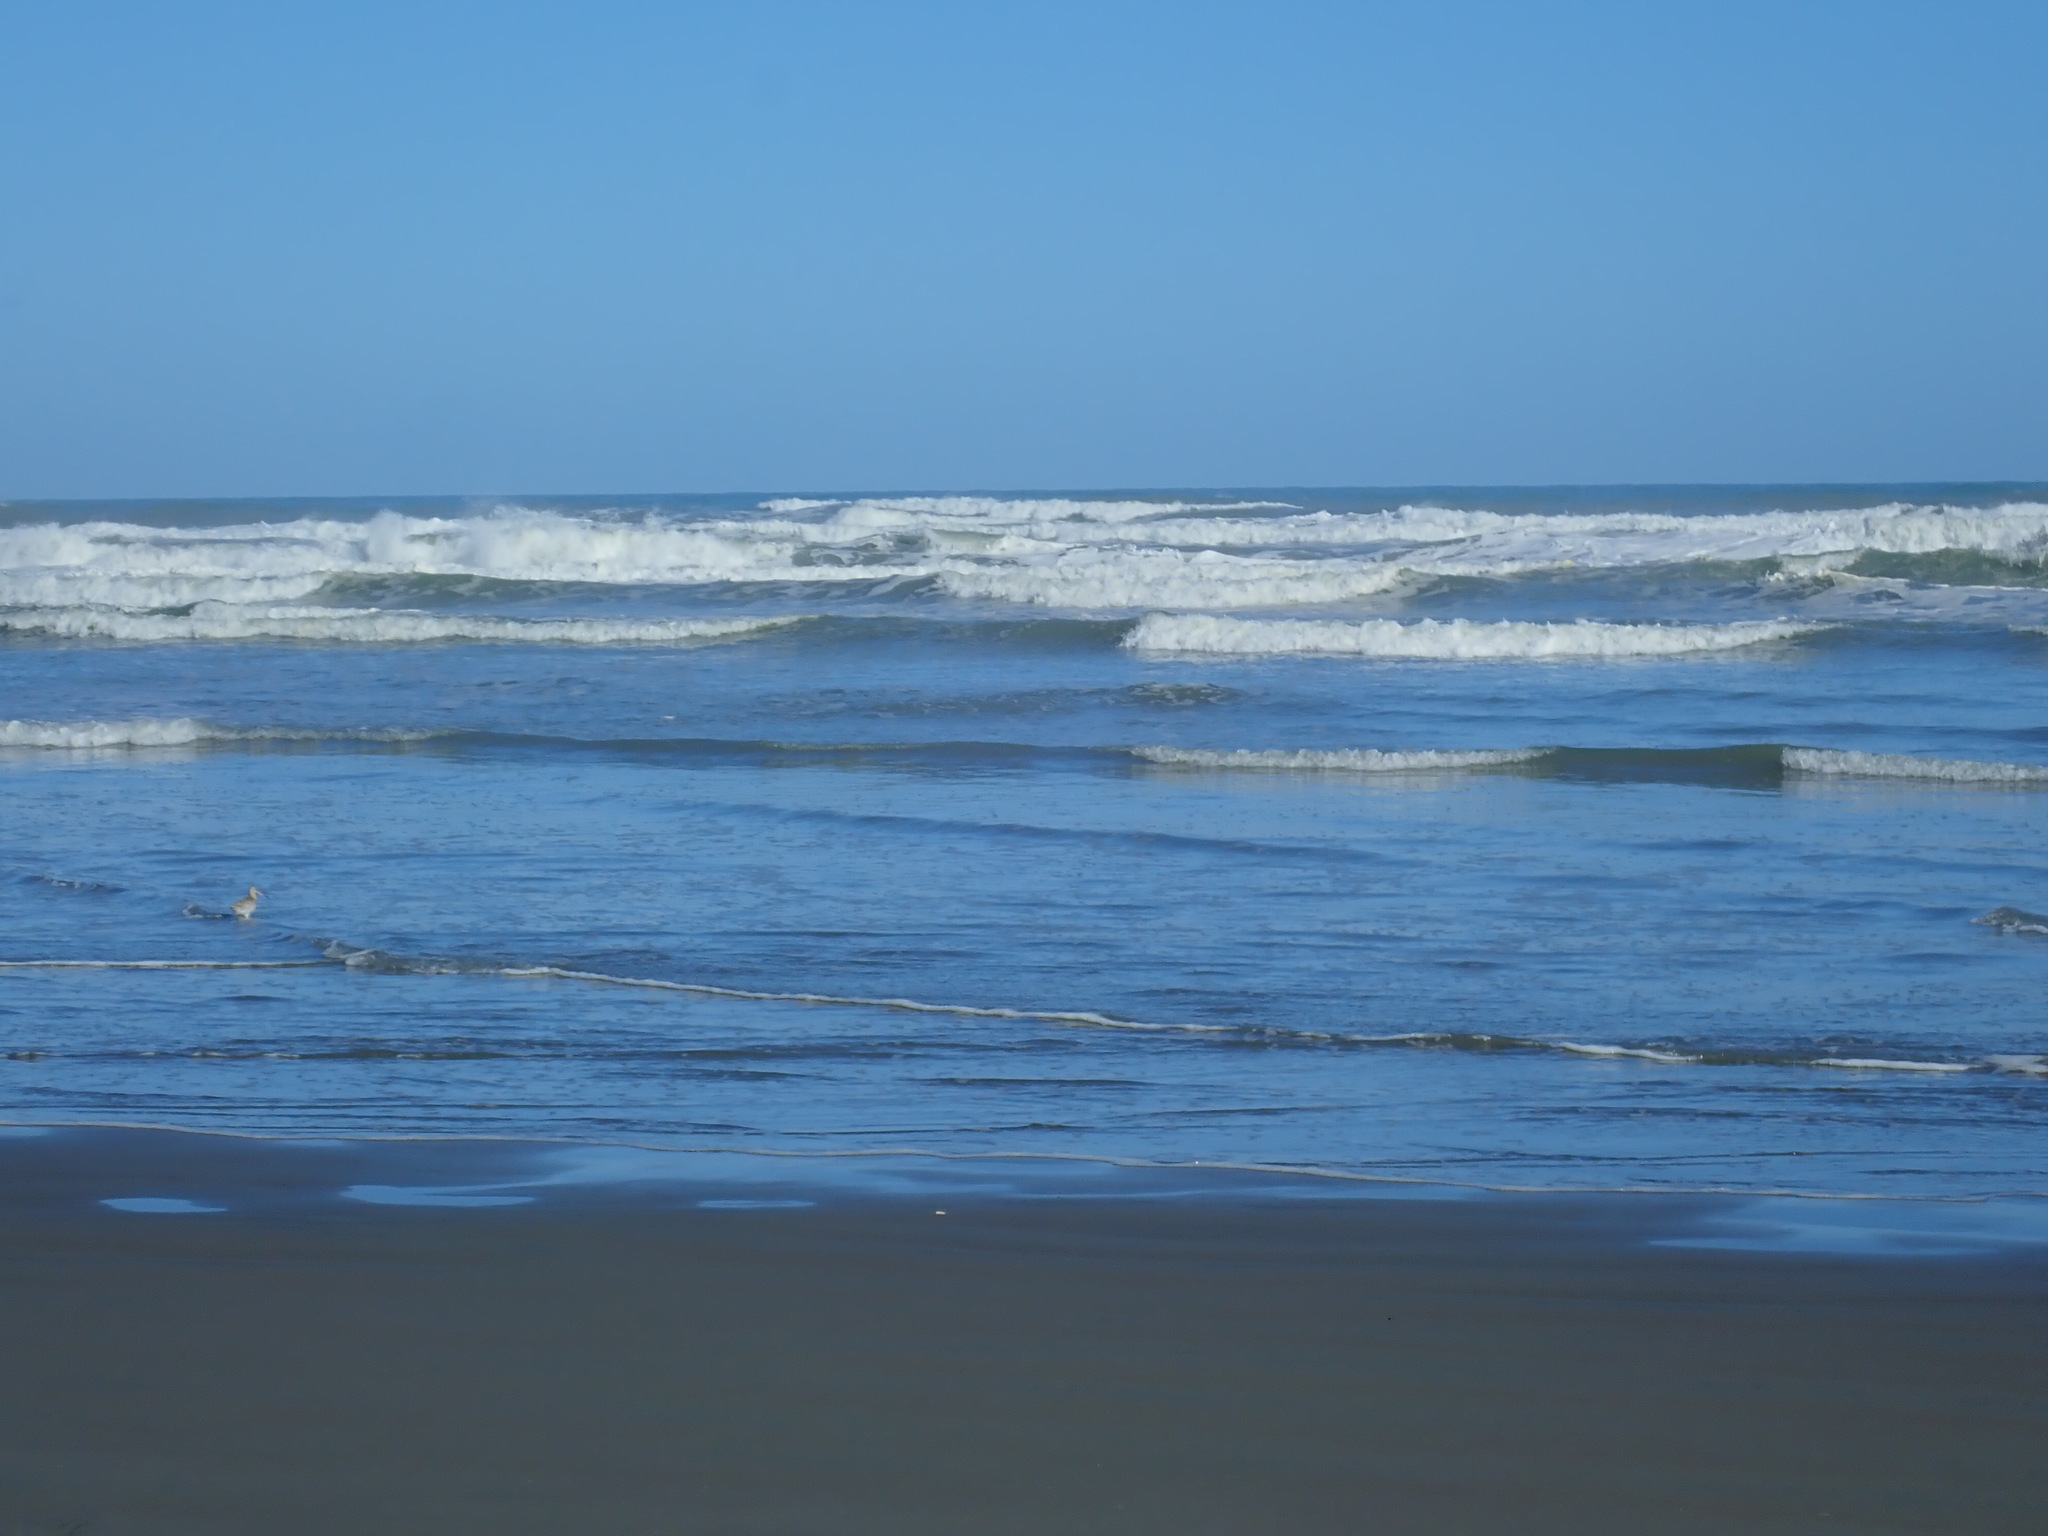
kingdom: Animalia
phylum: Chordata
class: Aves
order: Charadriiformes
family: Scolopacidae
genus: Limosa
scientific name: Limosa lapponica
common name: Bar-tailed godwit
